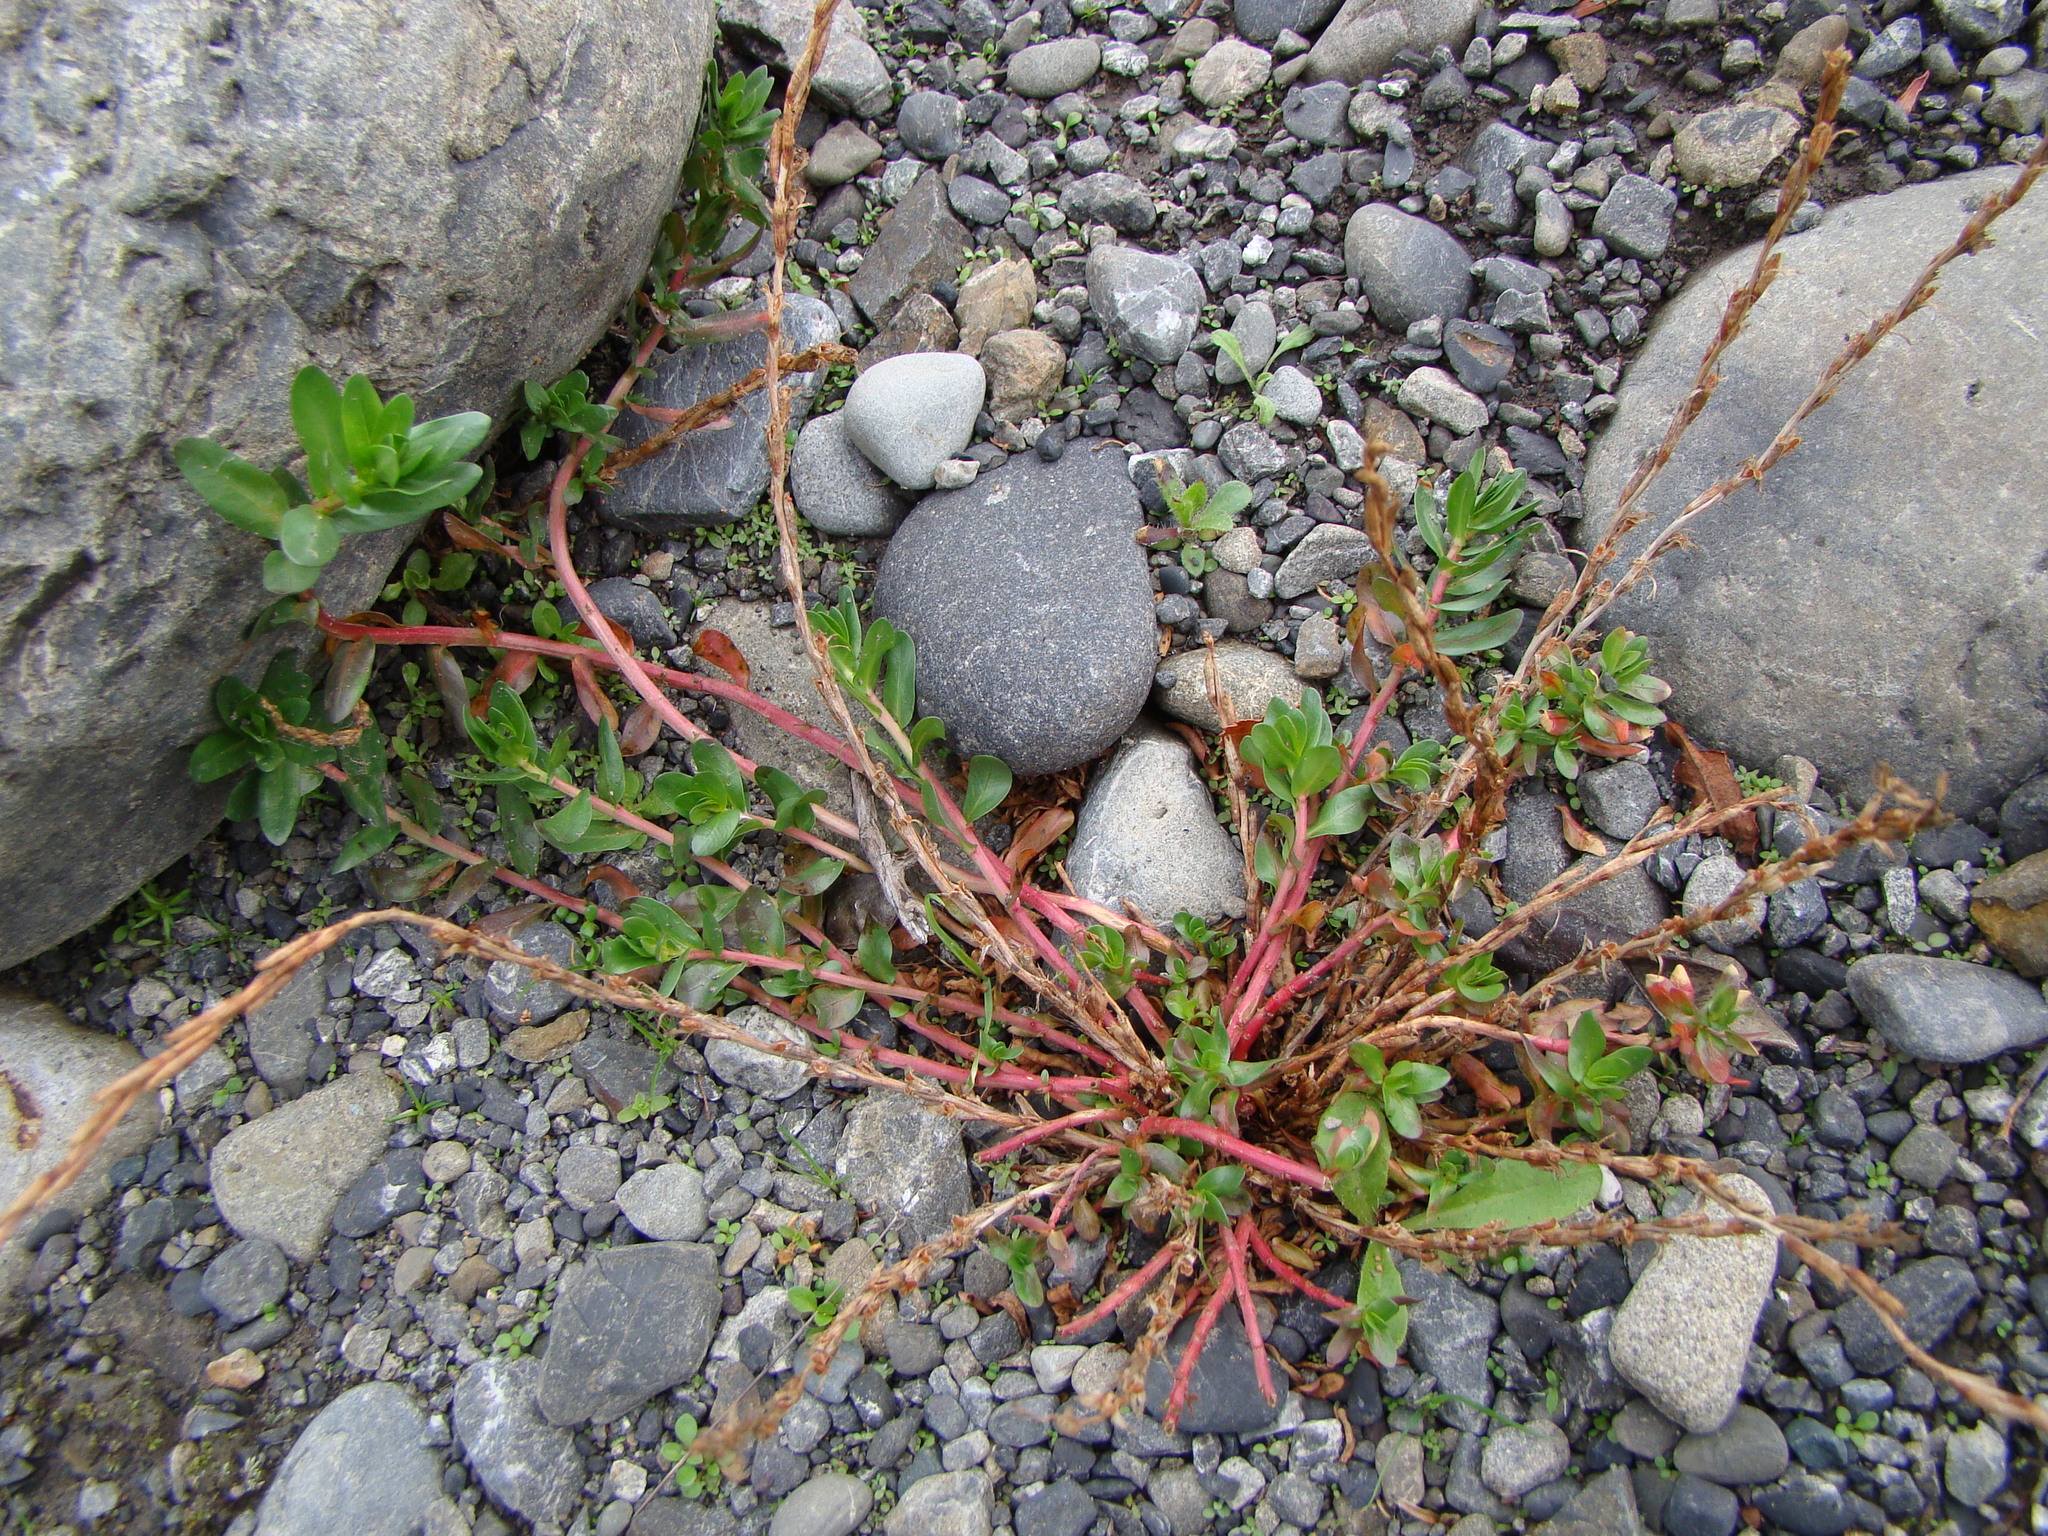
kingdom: Plantae
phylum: Tracheophyta
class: Magnoliopsida
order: Myrtales
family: Lythraceae
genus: Lythrum
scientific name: Lythrum hyssopifolia
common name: Grass-poly
